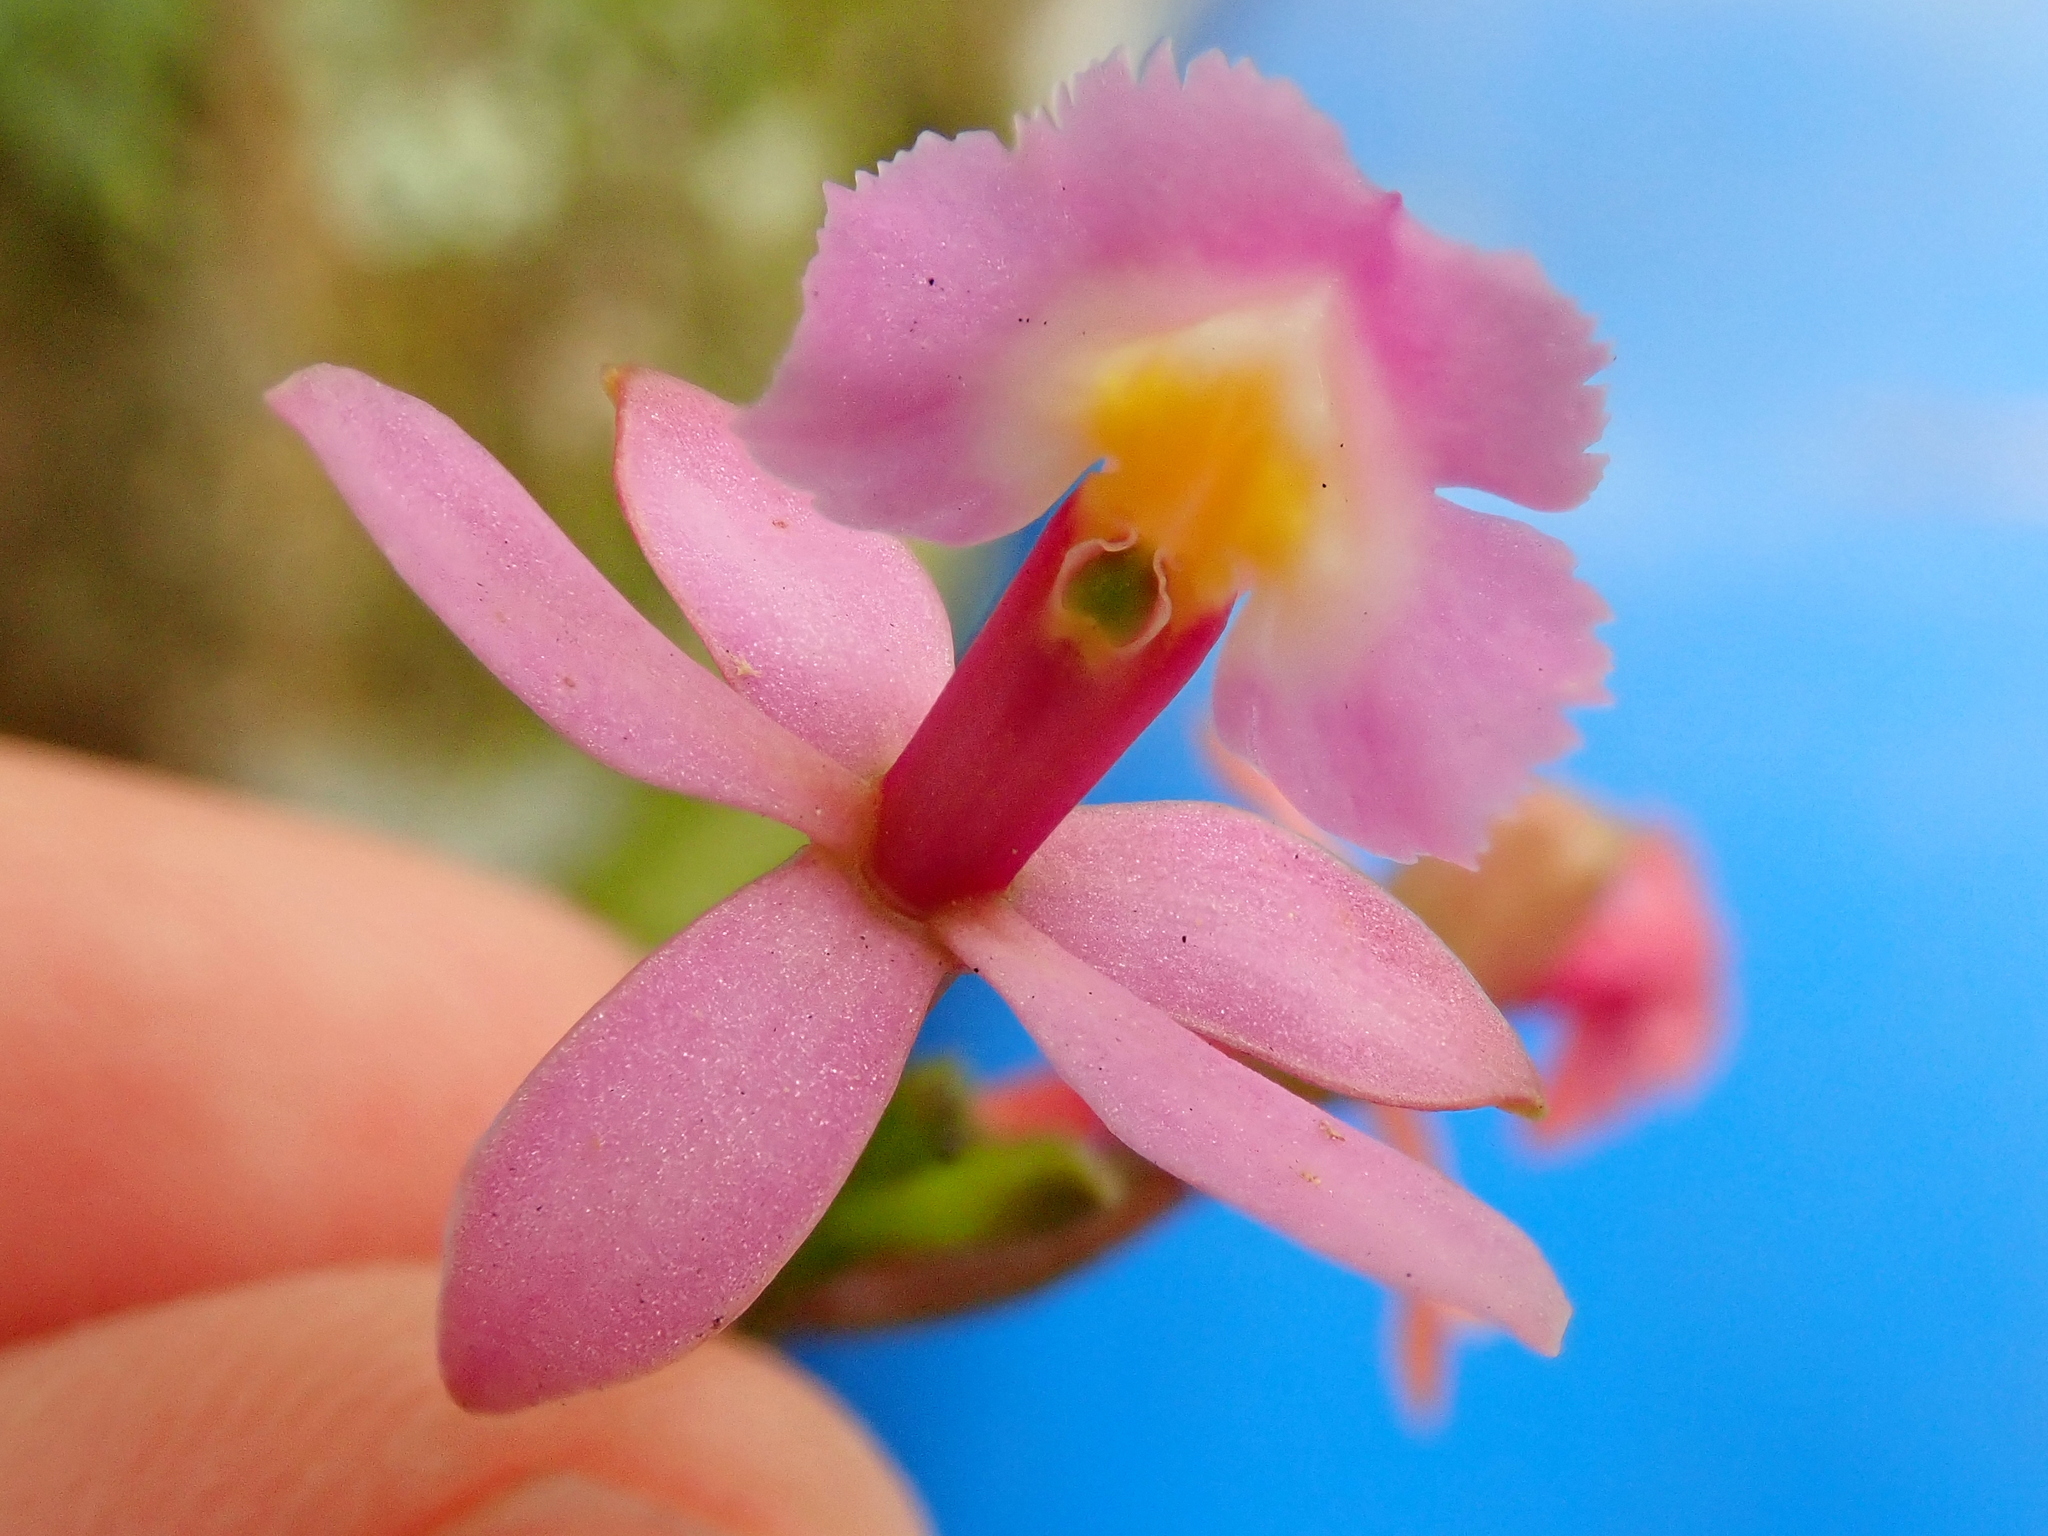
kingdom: Plantae
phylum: Tracheophyta
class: Liliopsida
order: Asparagales
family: Orchidaceae
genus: Epidendrum
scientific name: Epidendrum secundum
